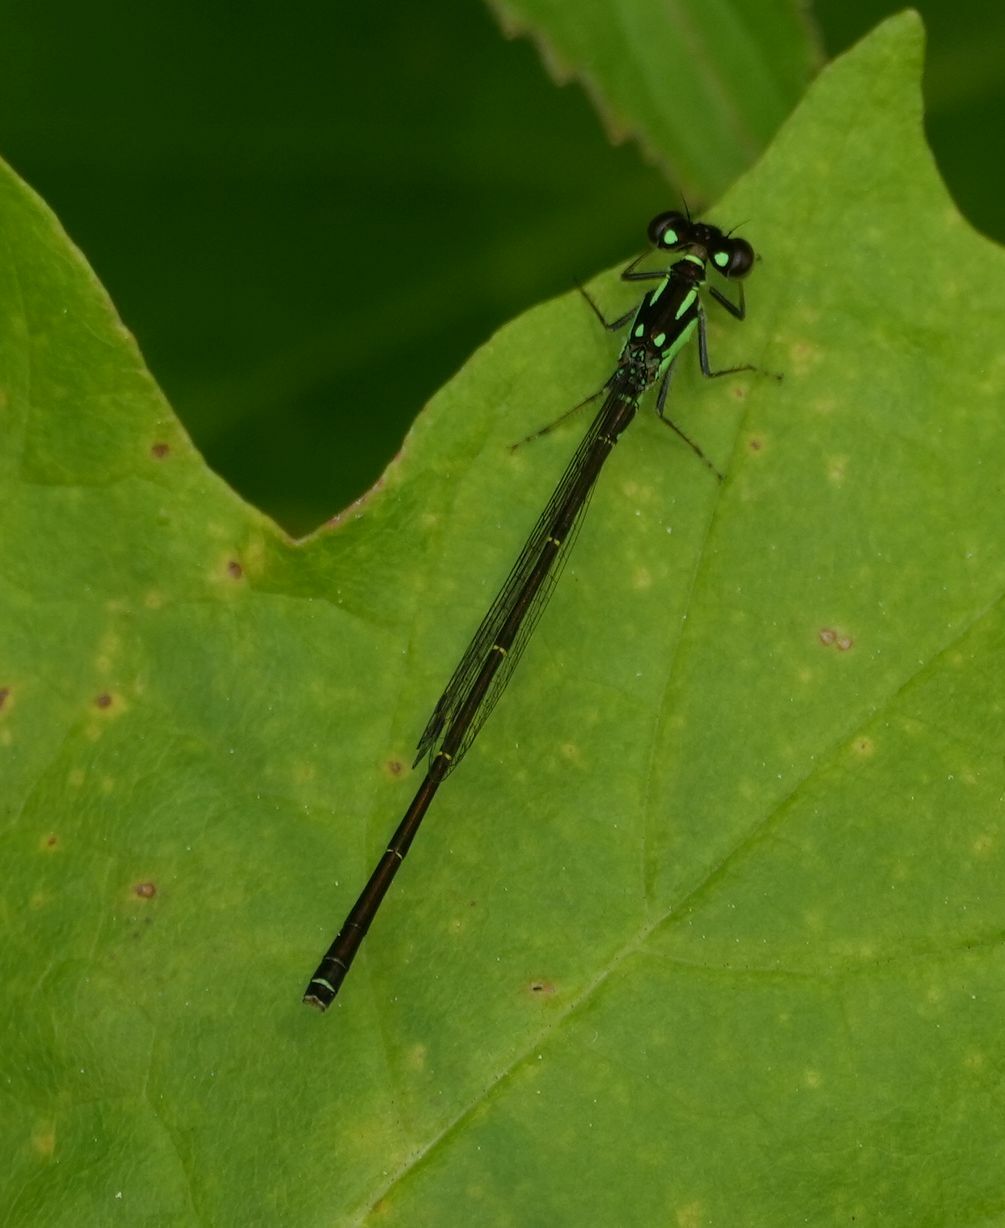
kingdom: Animalia
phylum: Arthropoda
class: Insecta
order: Odonata
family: Coenagrionidae
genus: Ischnura
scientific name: Ischnura posita
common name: Fragile forktail
